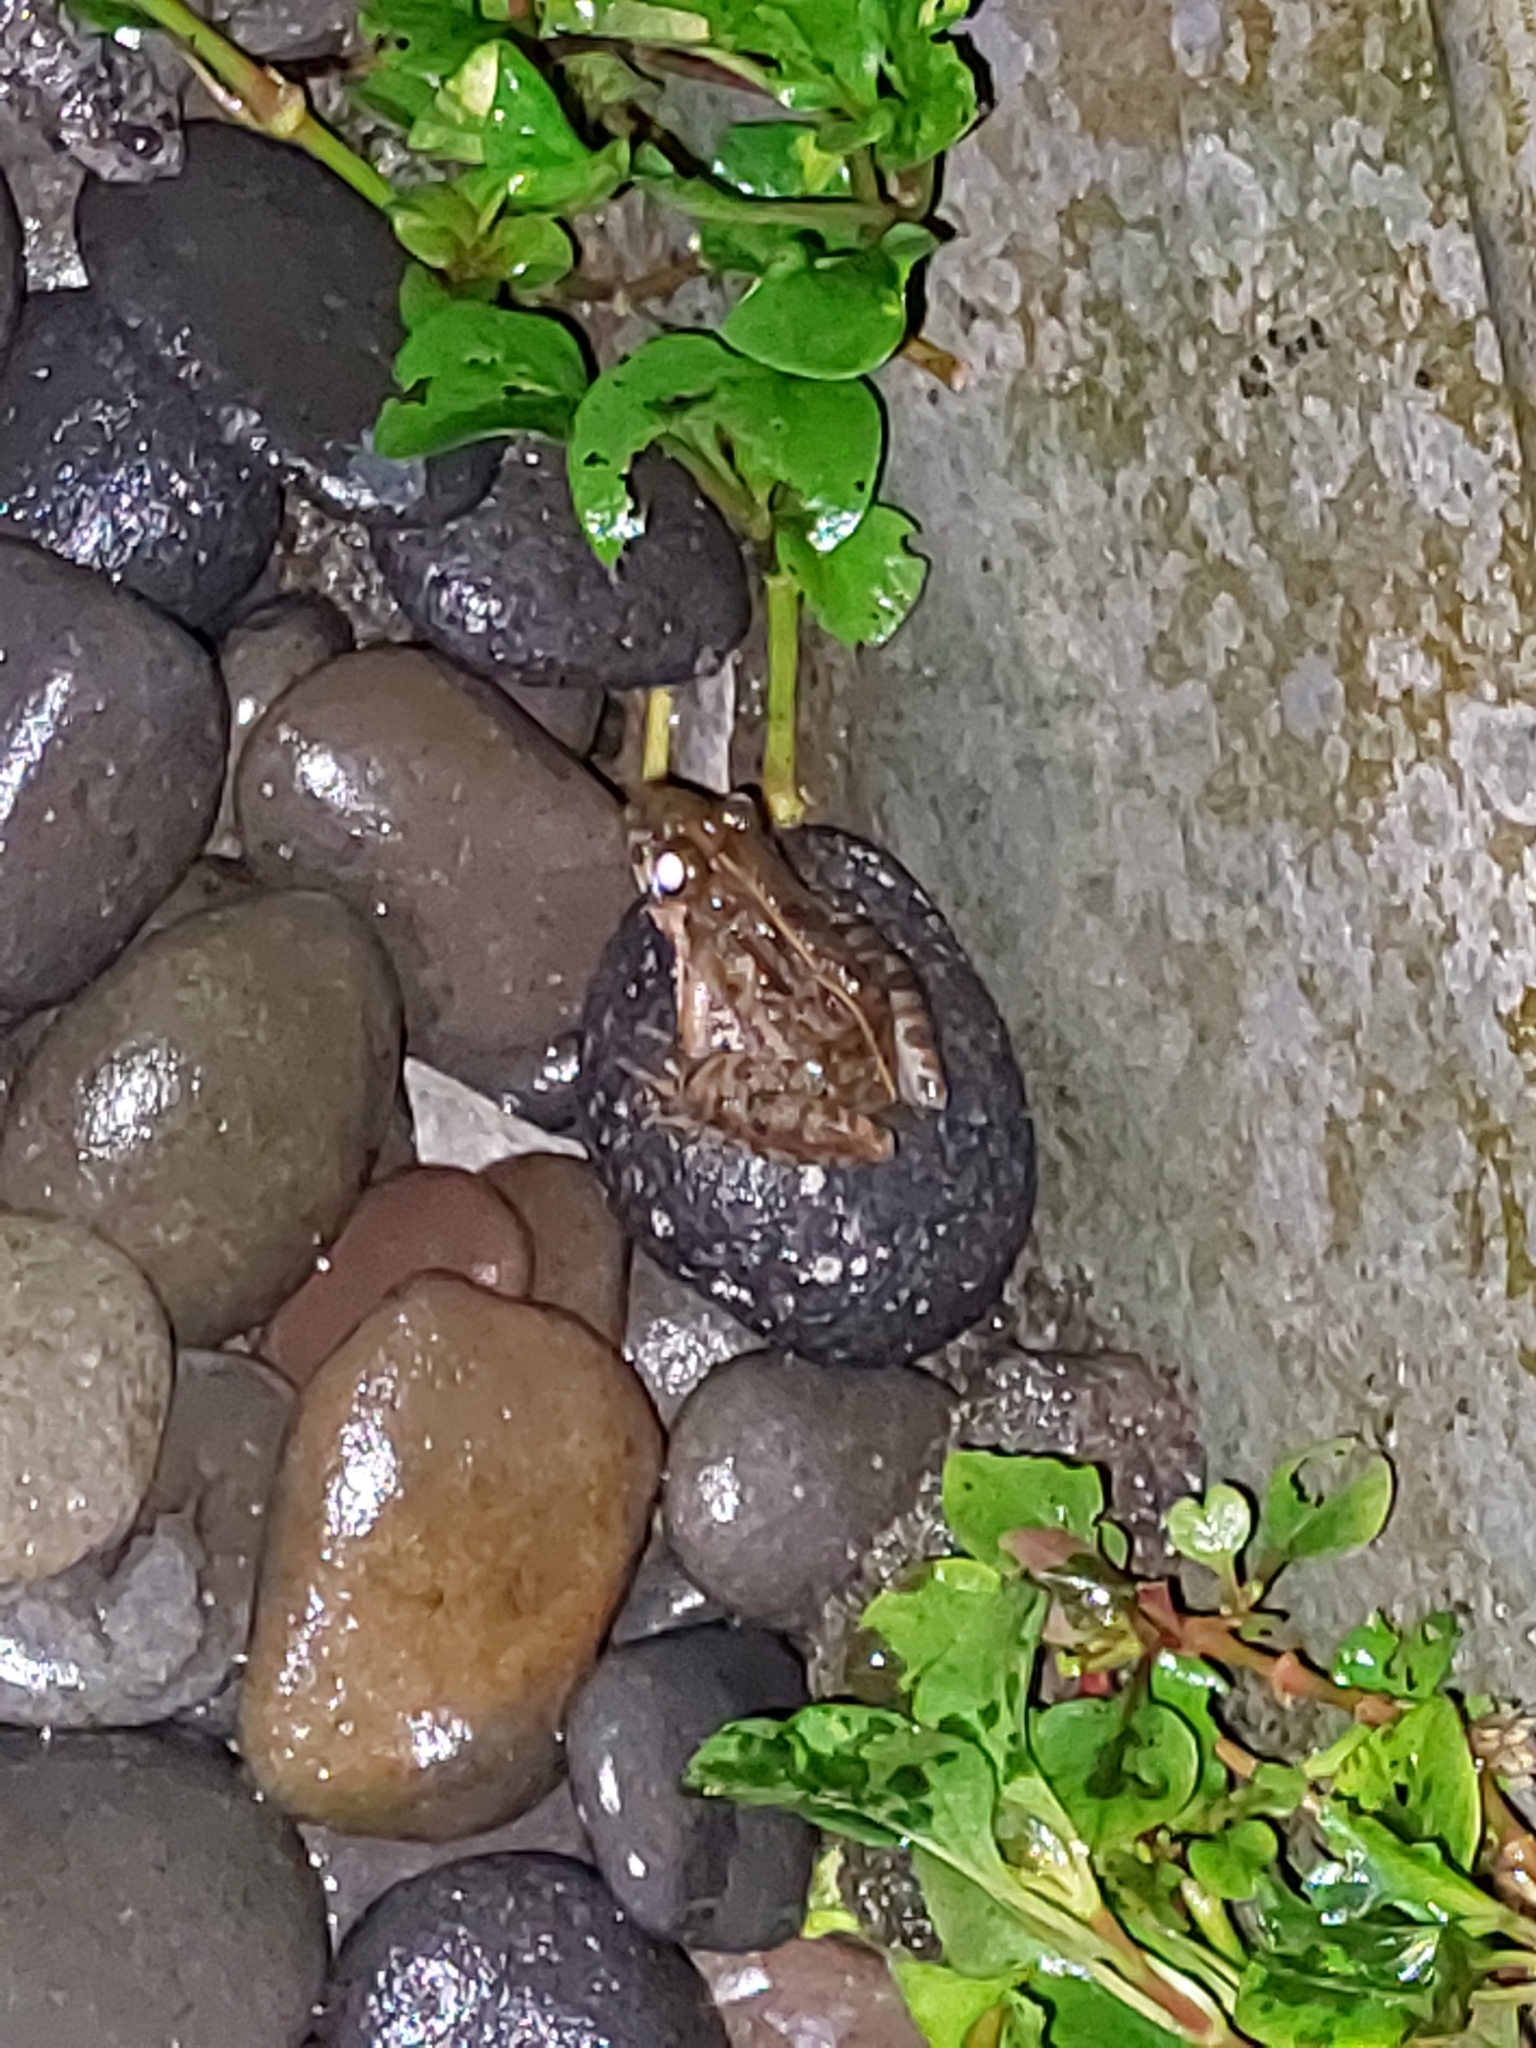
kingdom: Animalia
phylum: Chordata
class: Amphibia
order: Anura
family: Dicroglossidae
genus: Fejervarya
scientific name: Fejervarya limnocharis
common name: Asian grass frog/common pond frog/field frog/grass frog/indian rice frog
